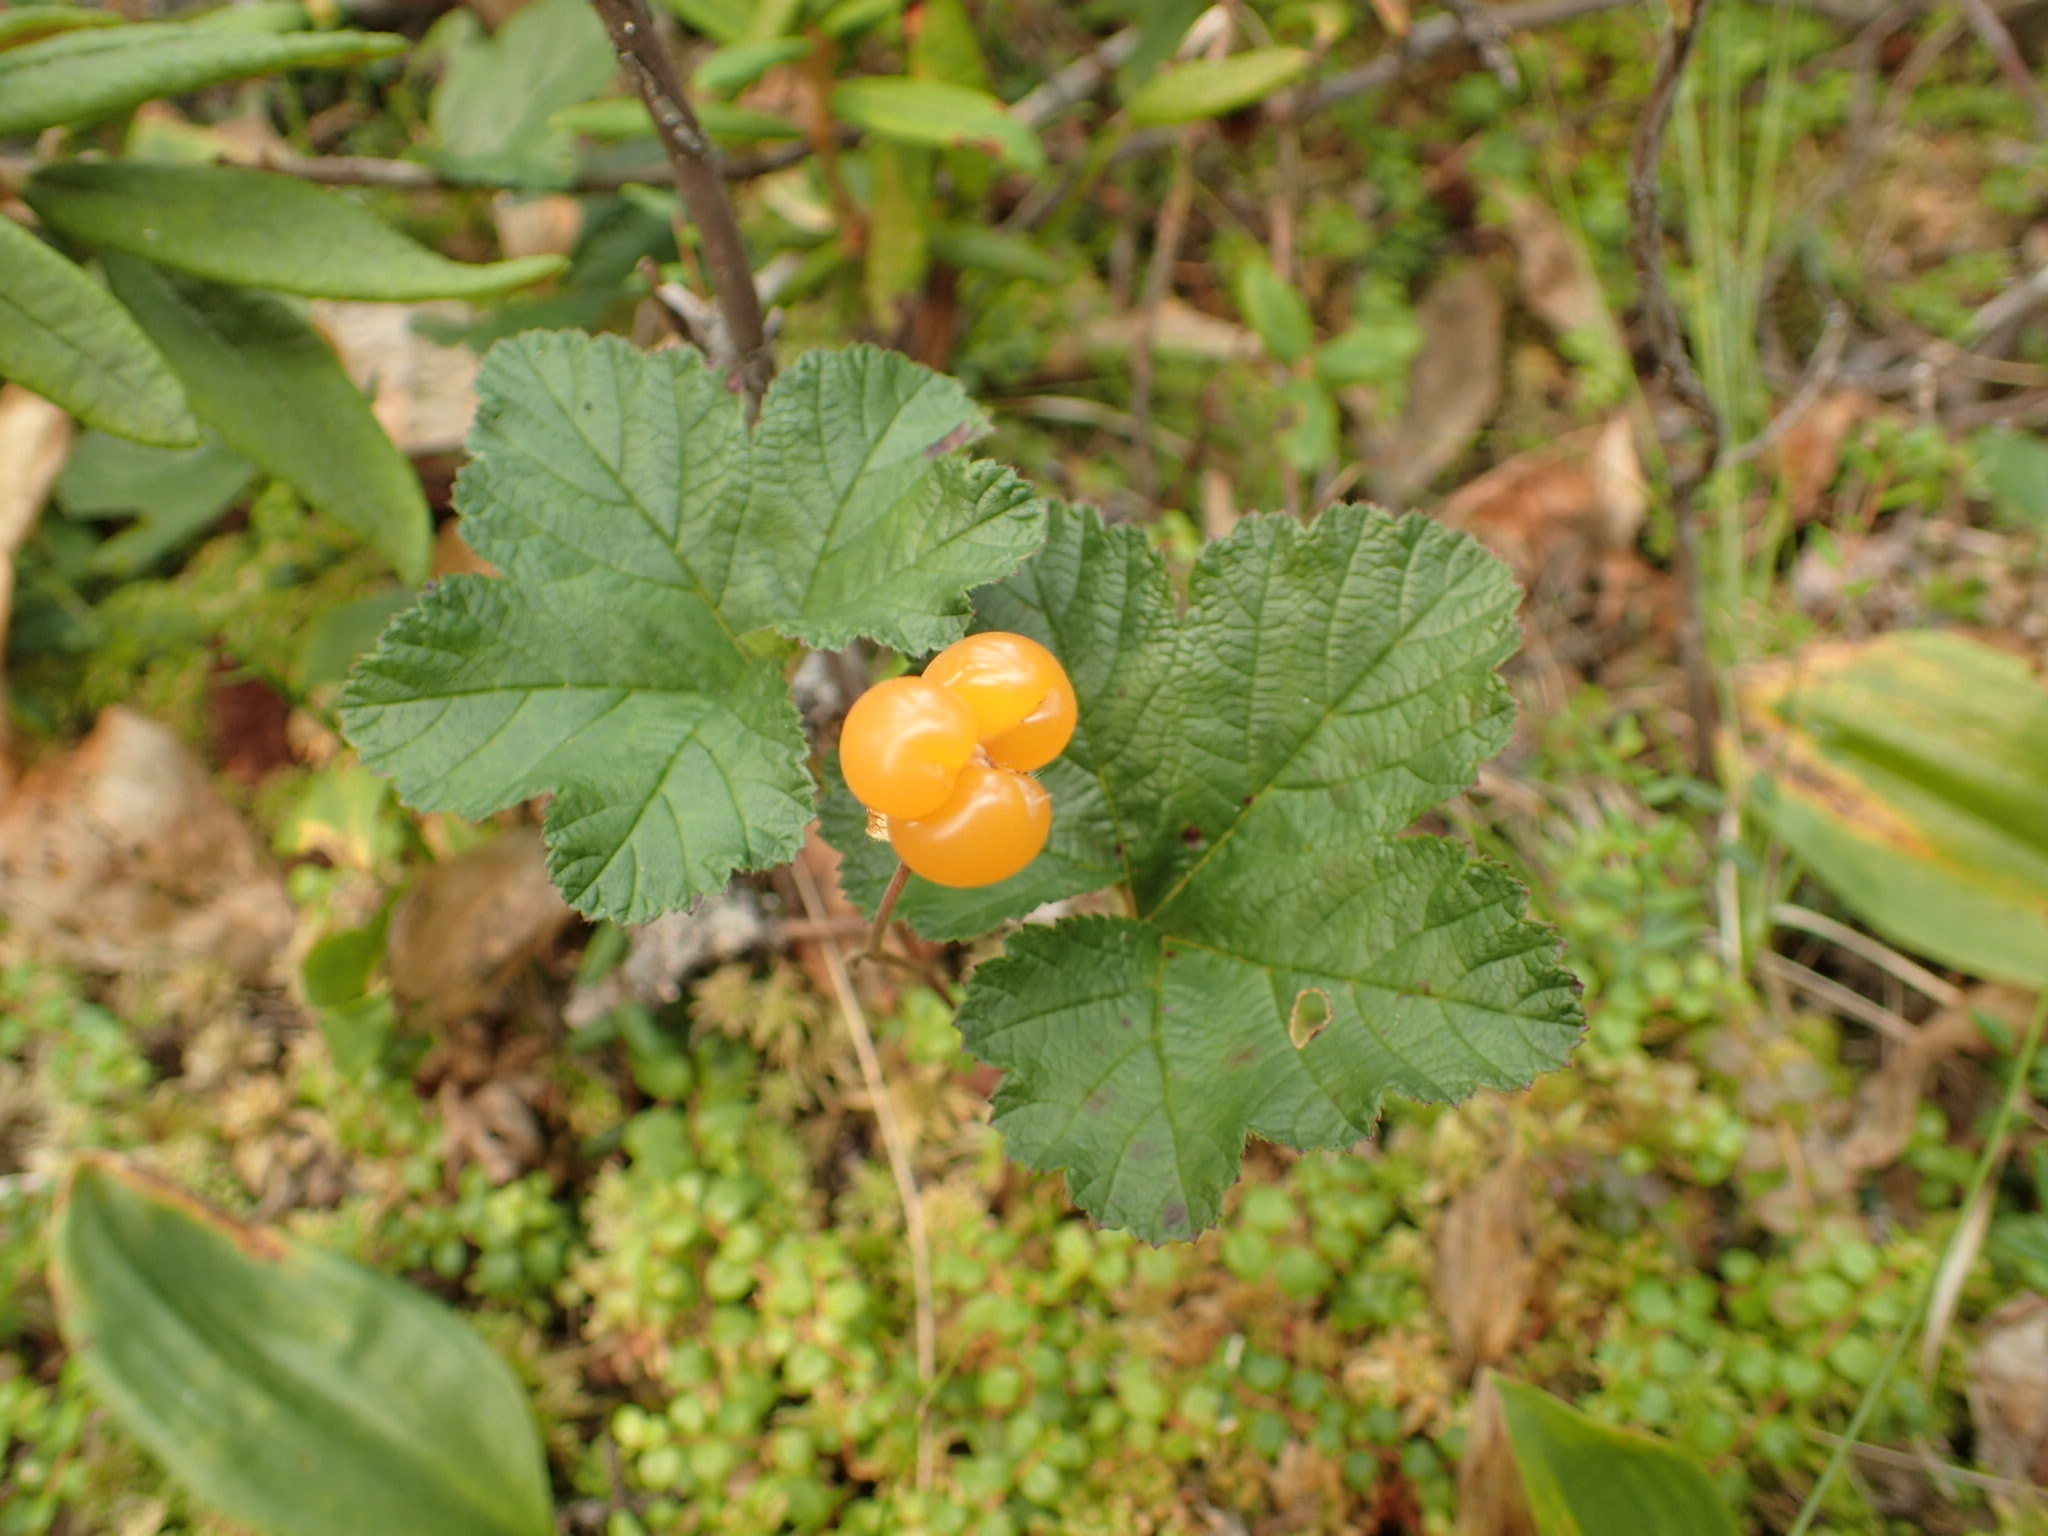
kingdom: Plantae
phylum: Tracheophyta
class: Magnoliopsida
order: Rosales
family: Rosaceae
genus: Rubus
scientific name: Rubus chamaemorus
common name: Cloudberry
